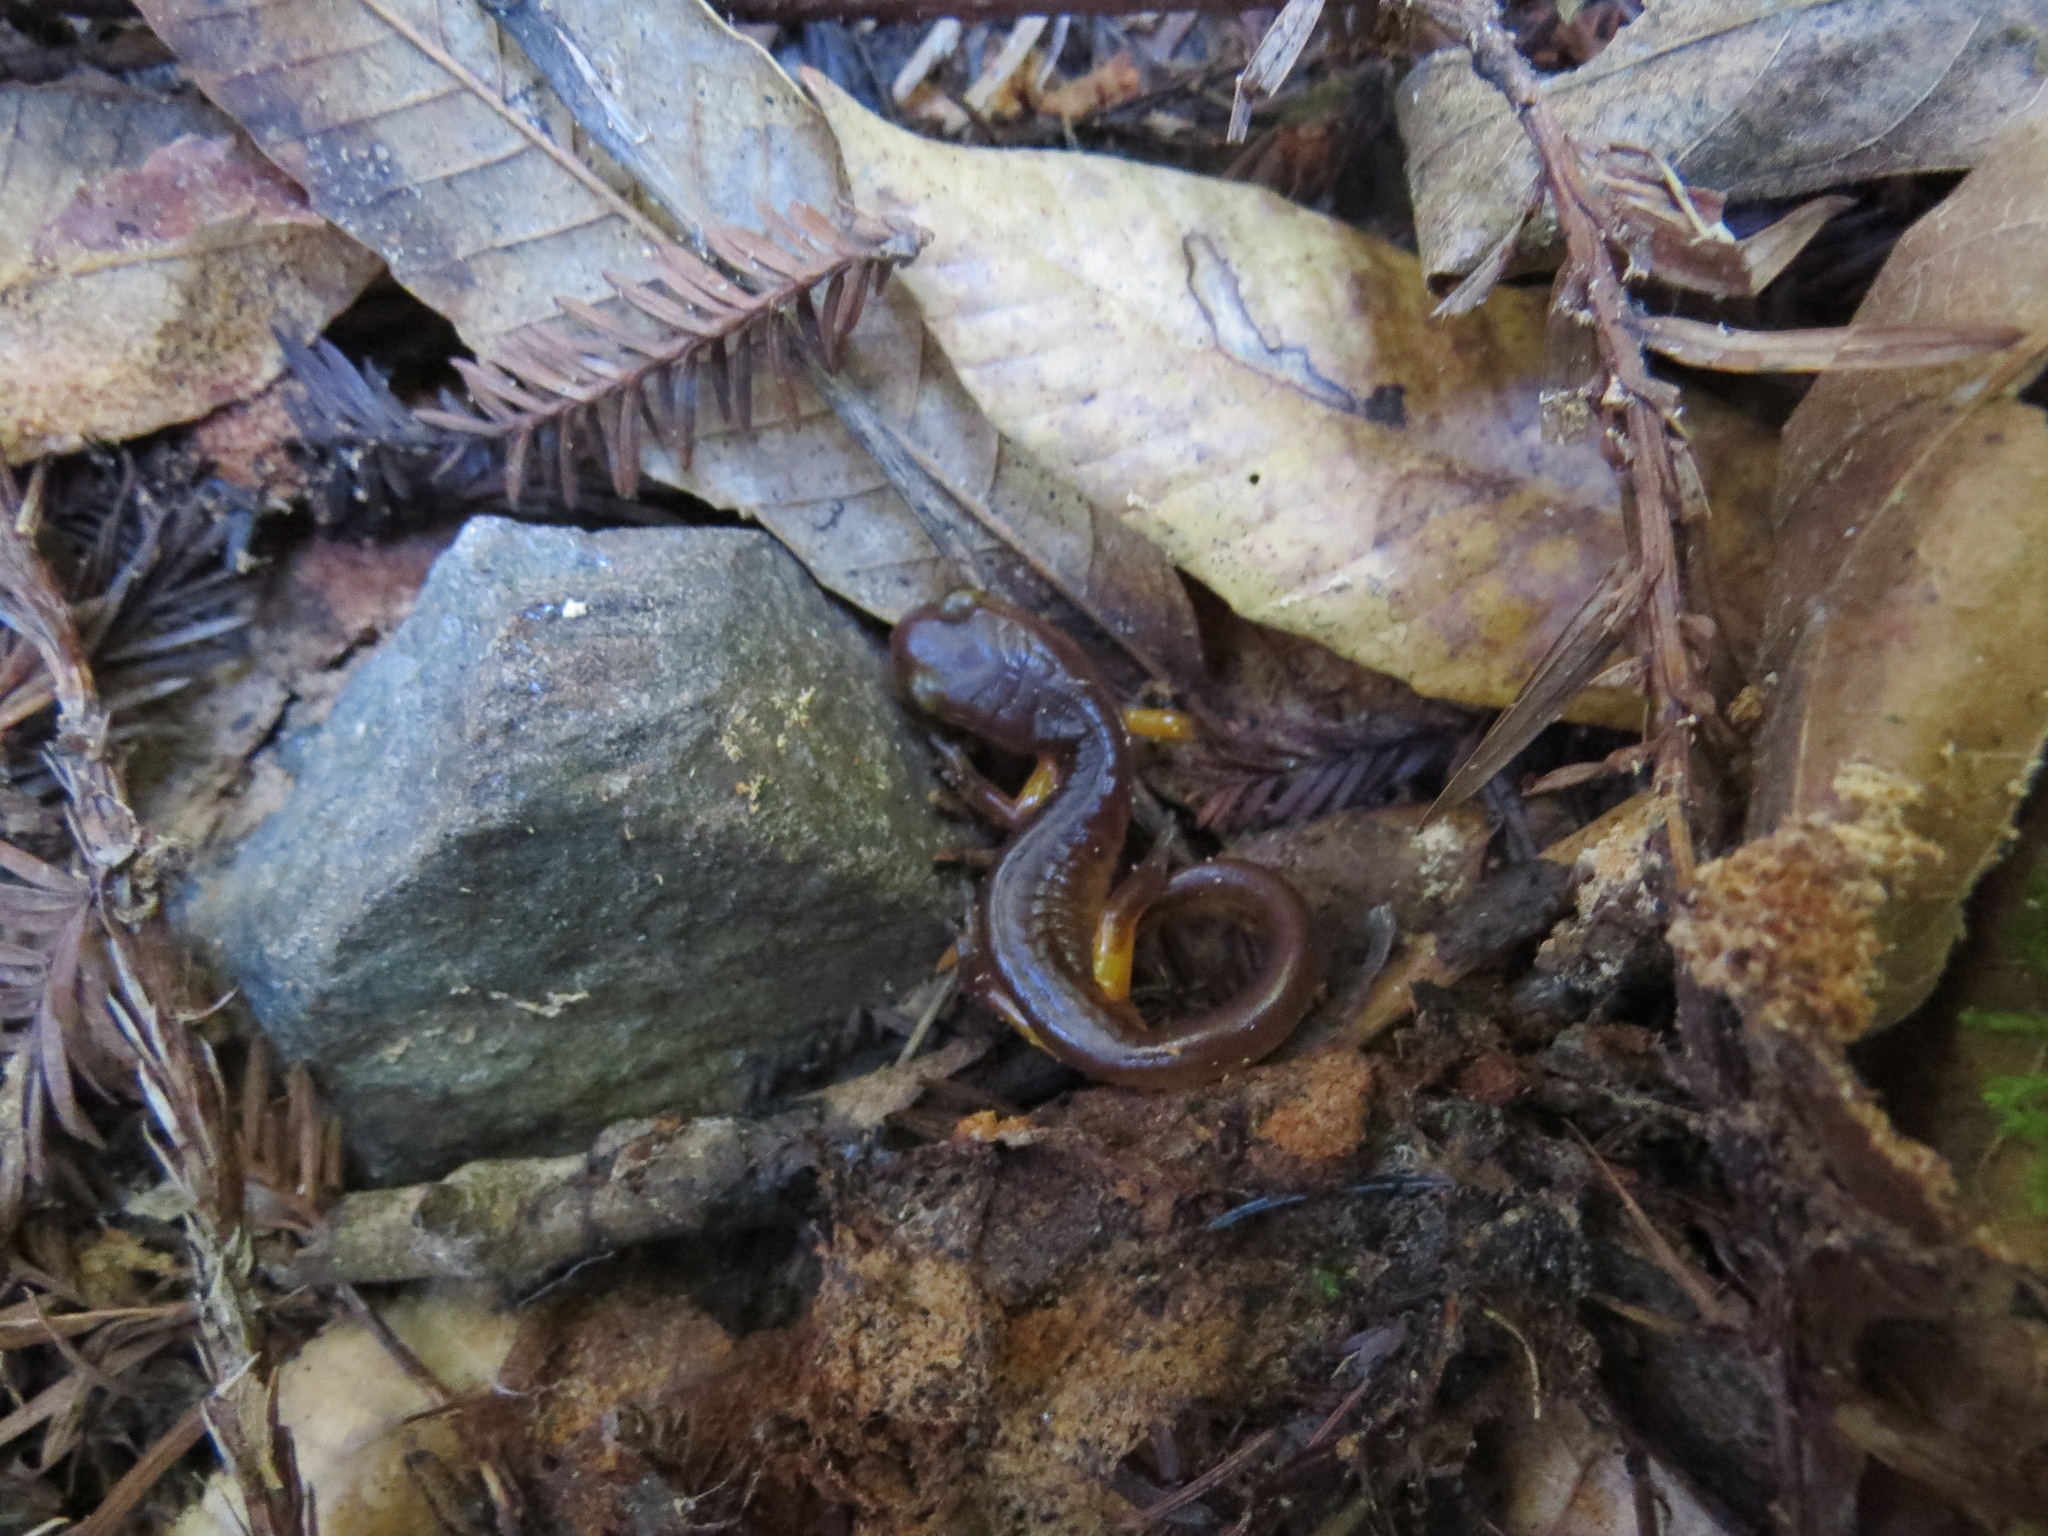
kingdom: Animalia
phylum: Chordata
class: Amphibia
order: Caudata
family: Plethodontidae
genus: Ensatina
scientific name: Ensatina eschscholtzii
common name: Ensatina
